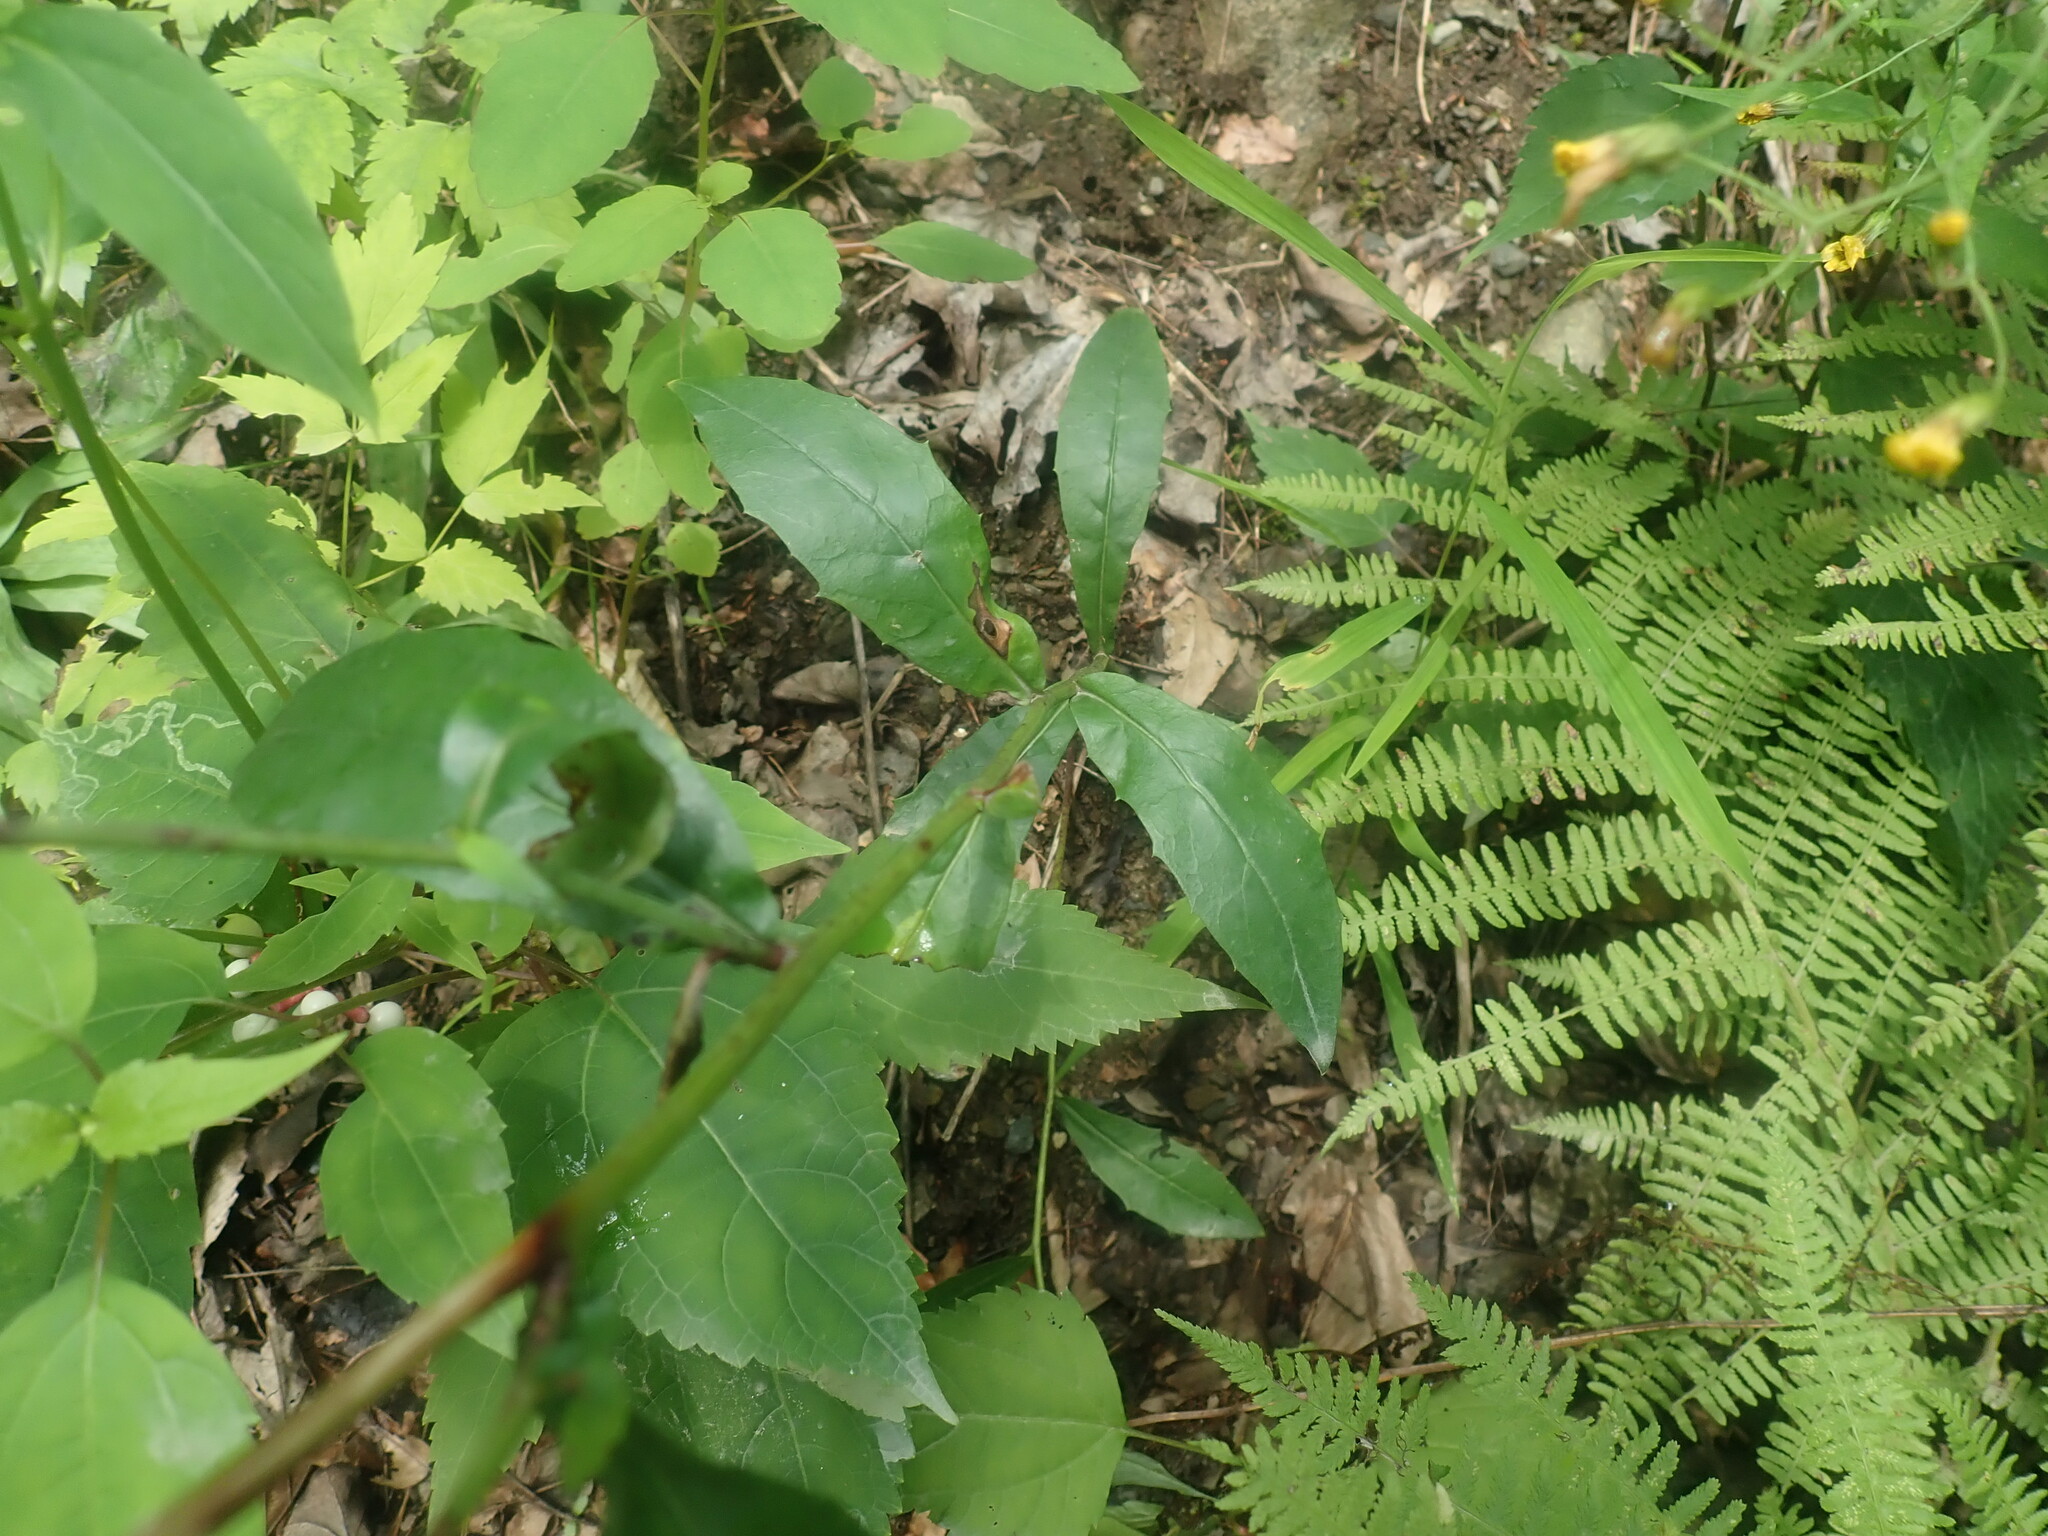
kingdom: Plantae
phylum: Tracheophyta
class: Magnoliopsida
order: Asterales
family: Asteraceae
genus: Hieracium
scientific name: Hieracium paniculatum
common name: Allegheny hawkweed
